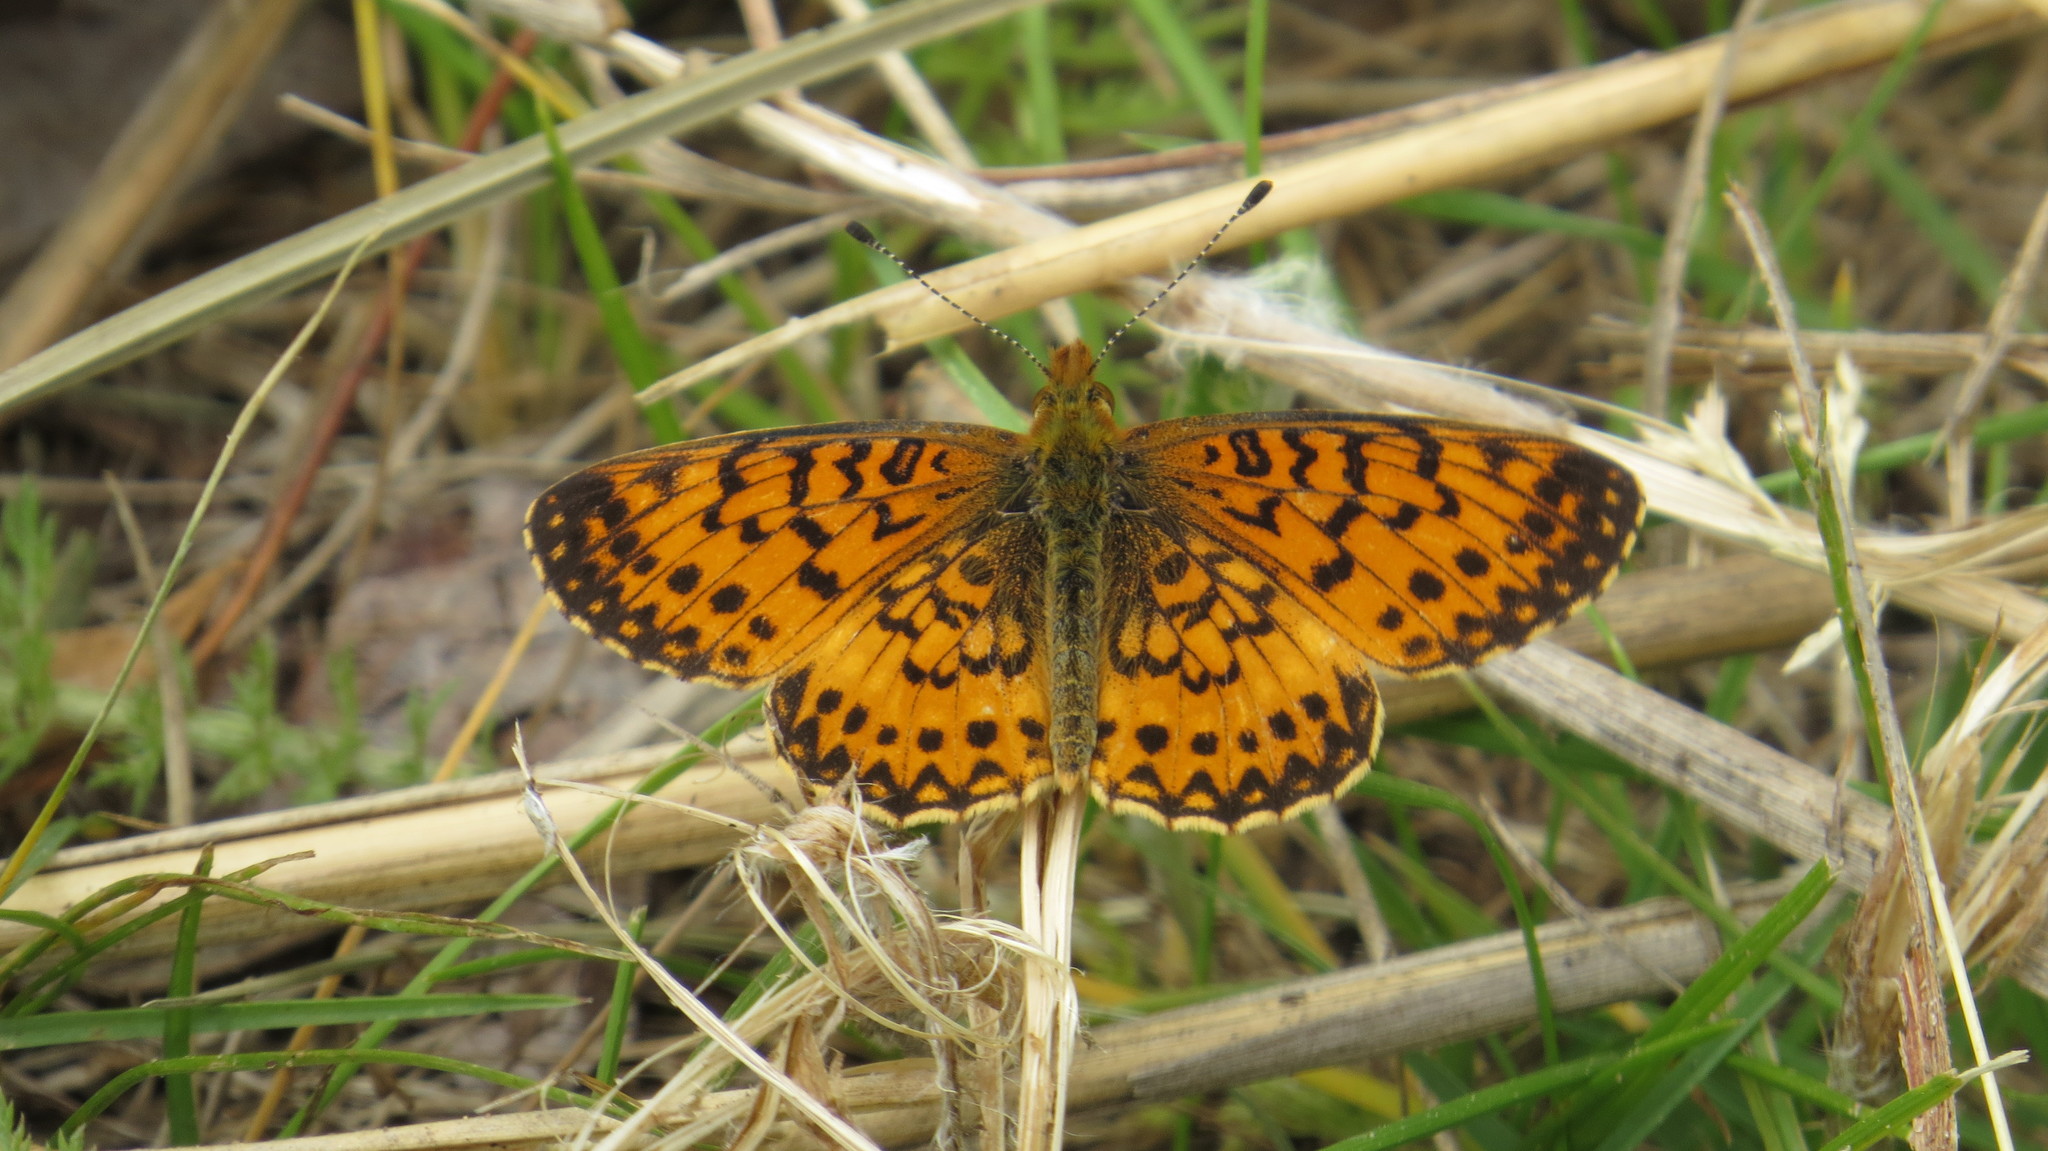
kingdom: Animalia
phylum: Arthropoda
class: Insecta
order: Lepidoptera
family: Nymphalidae
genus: Boloria
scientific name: Boloria
